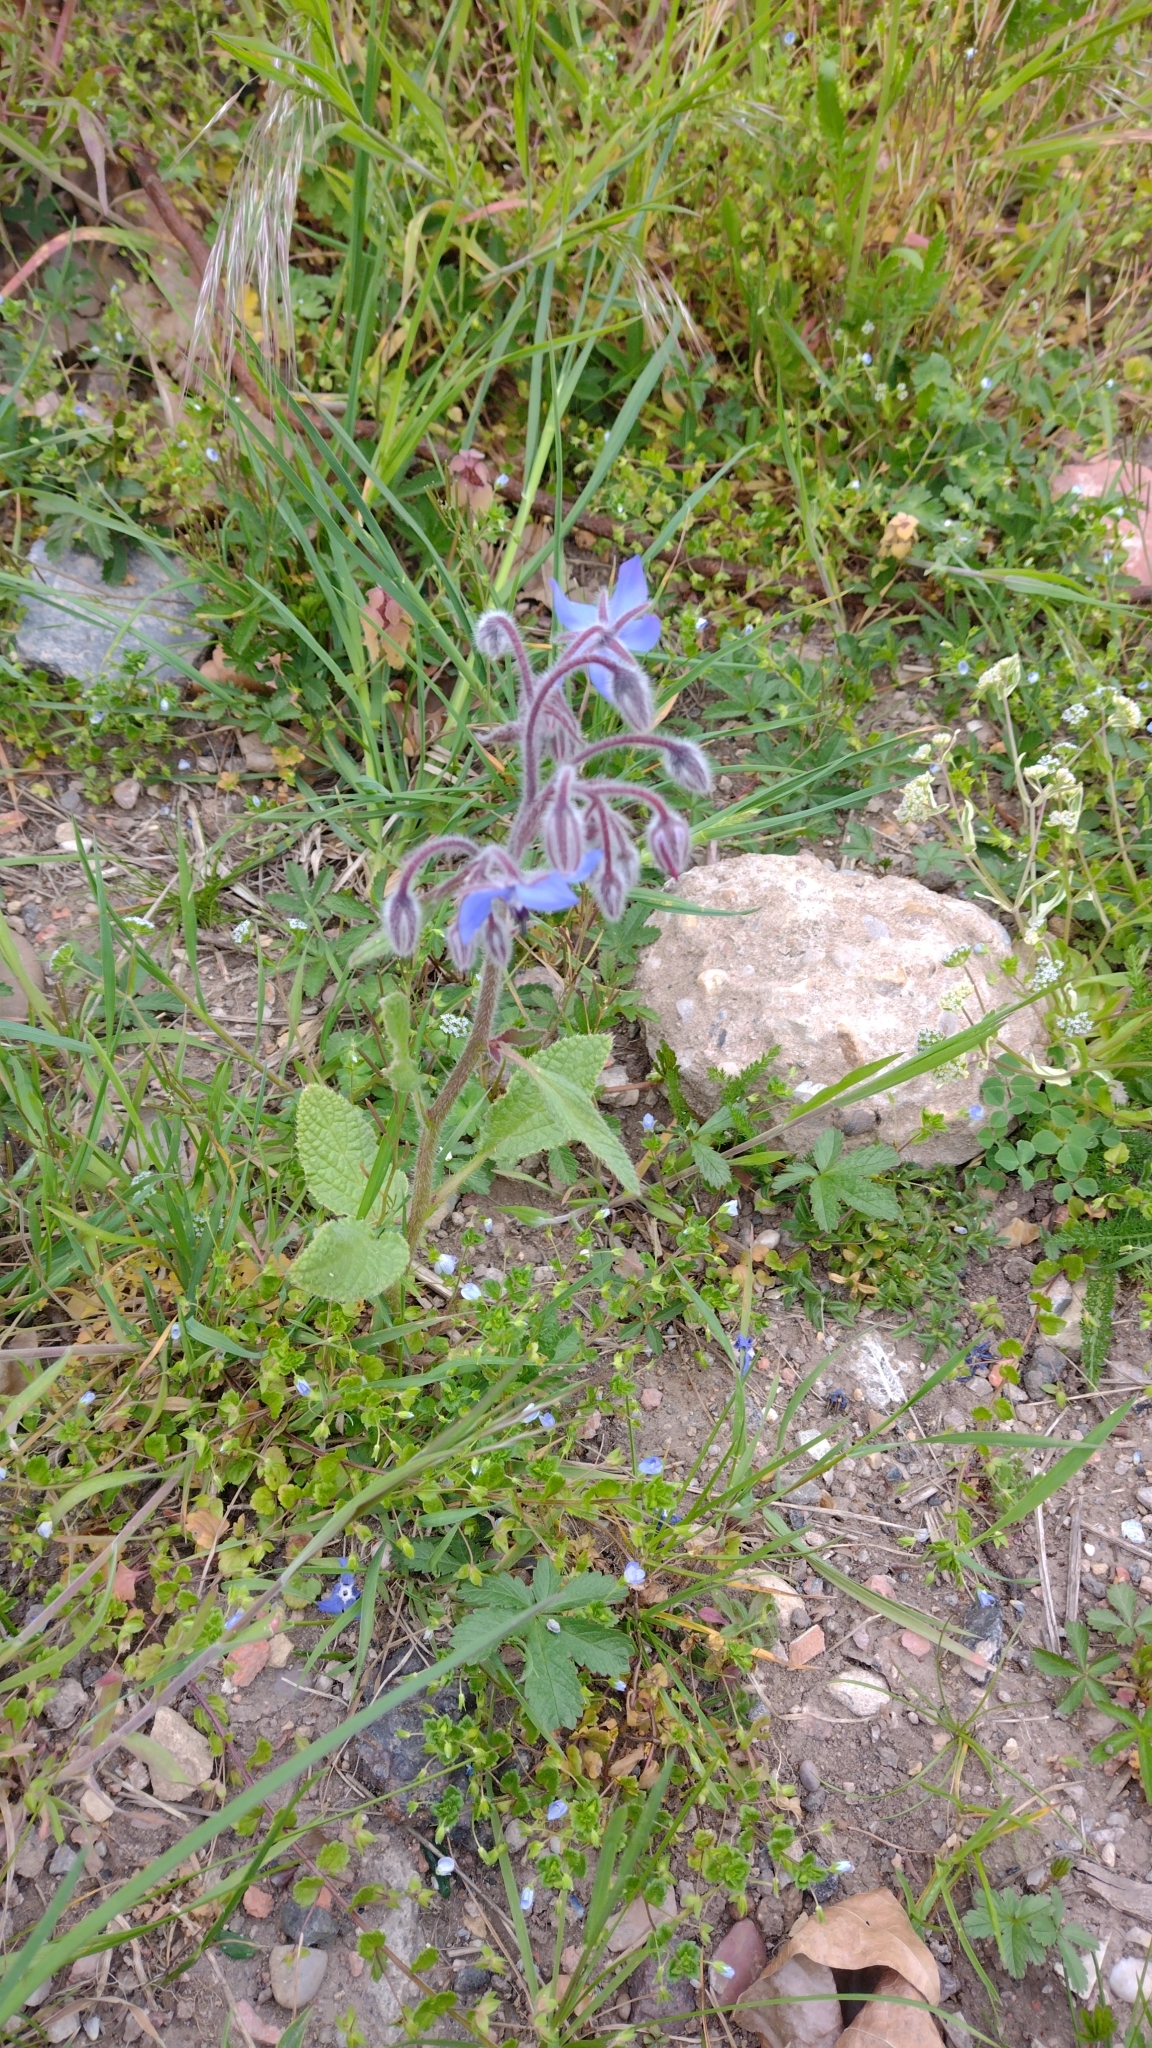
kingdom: Plantae
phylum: Tracheophyta
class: Magnoliopsida
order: Boraginales
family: Boraginaceae
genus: Borago
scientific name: Borago officinalis
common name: Borage
